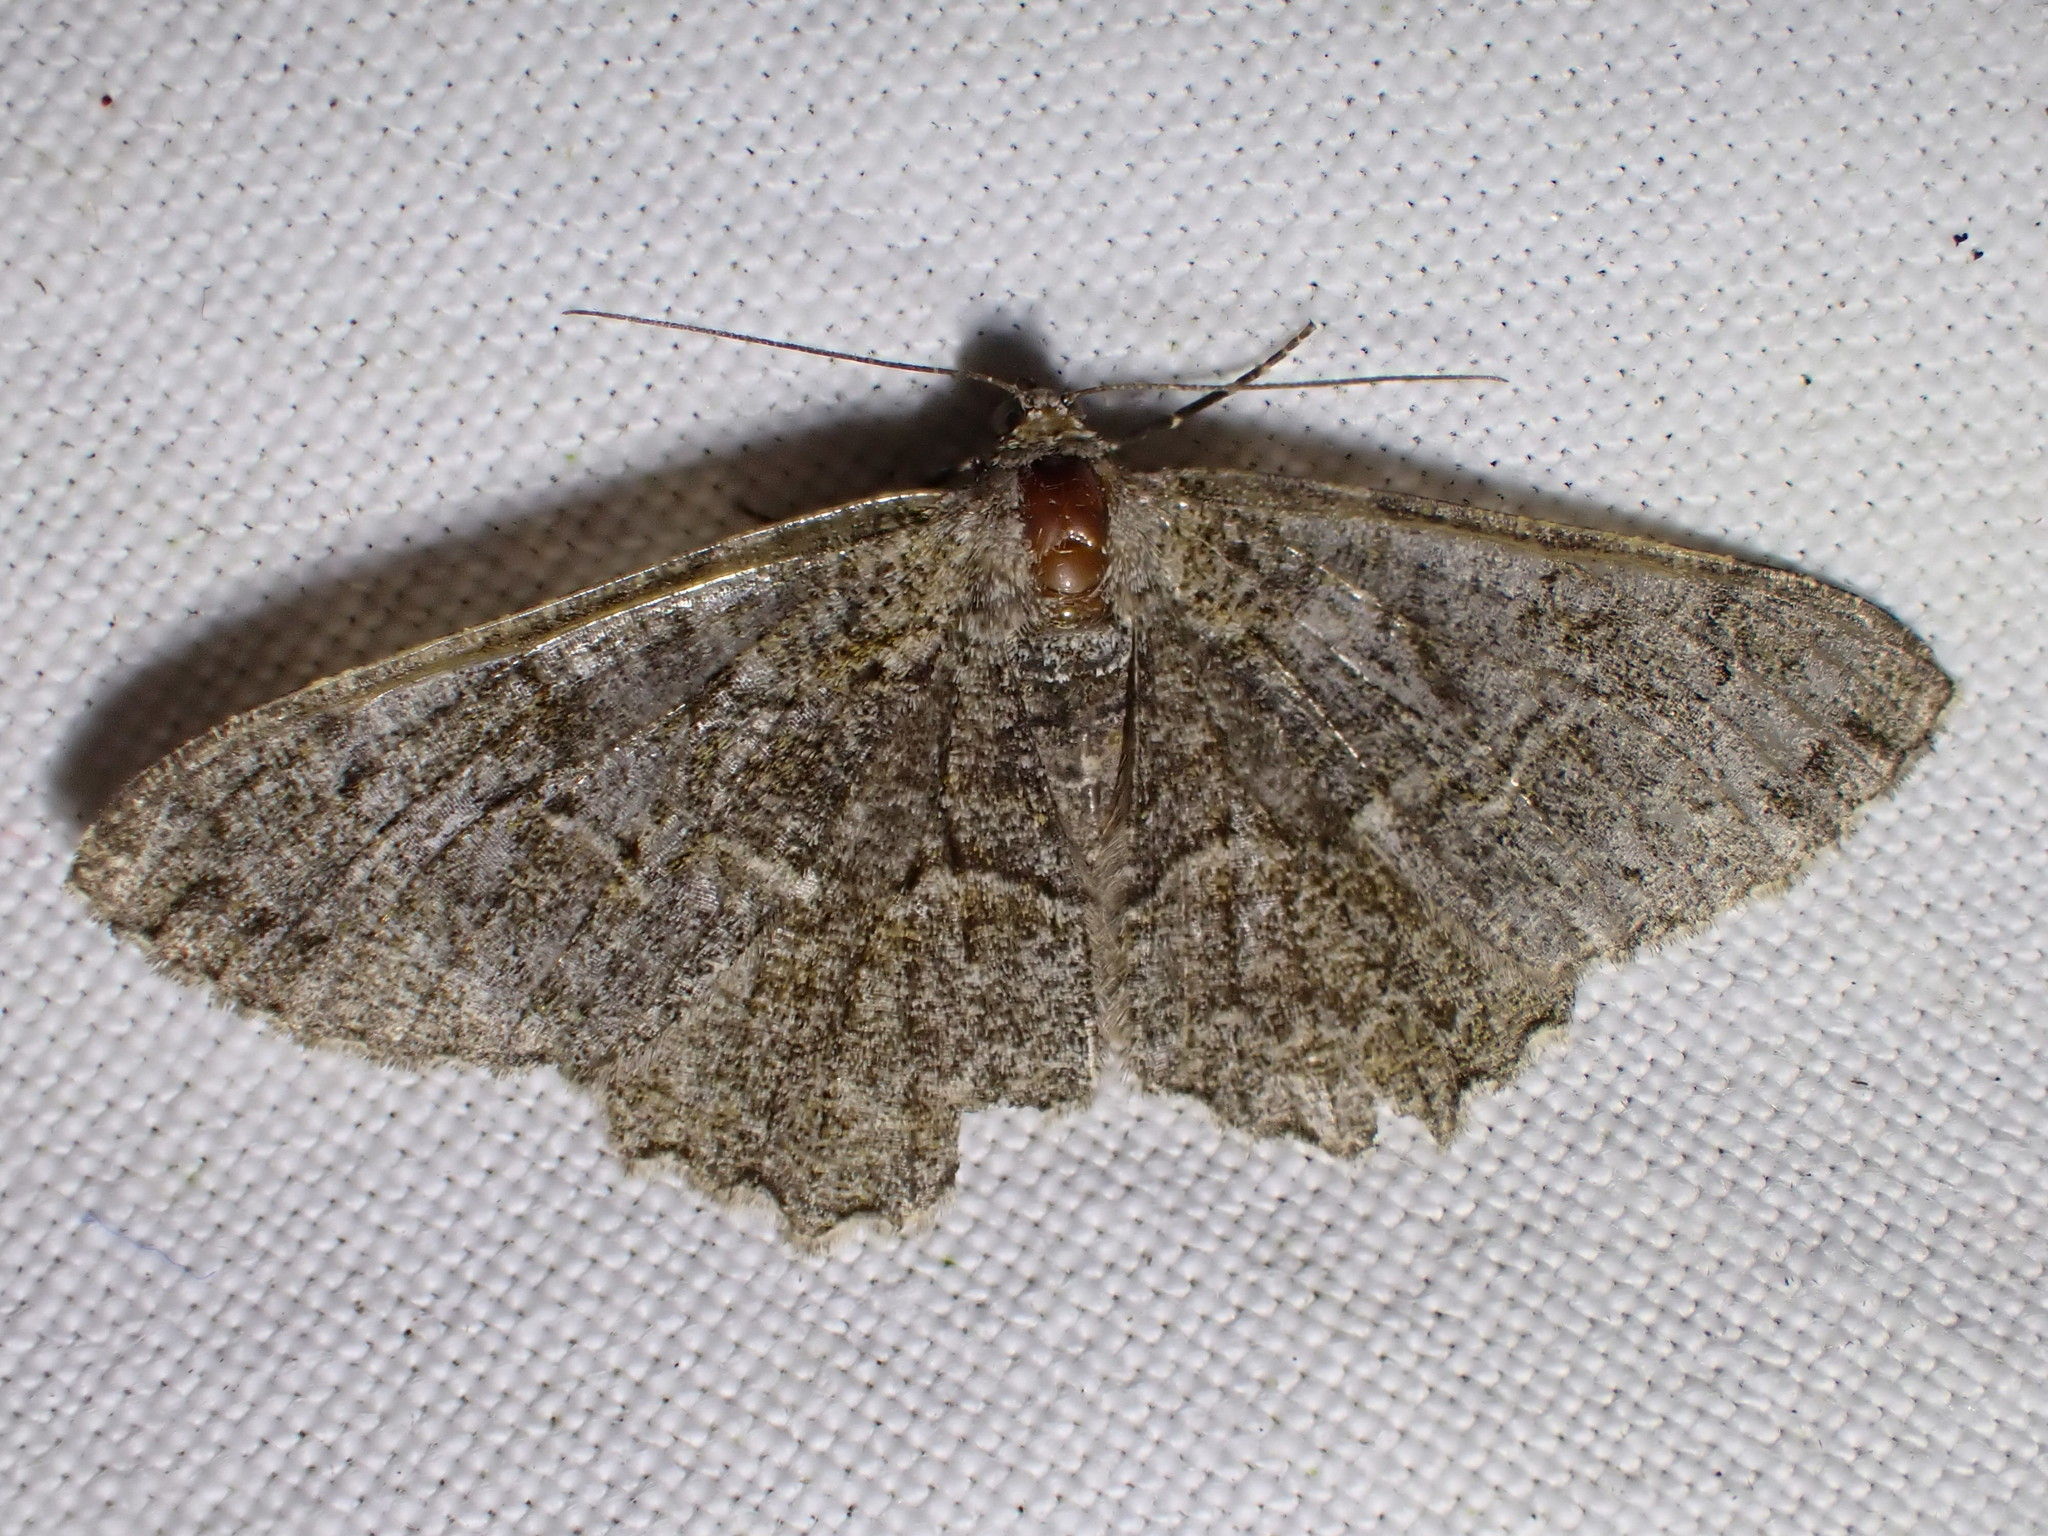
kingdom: Animalia
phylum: Arthropoda
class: Insecta
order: Lepidoptera
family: Geometridae
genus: Alcis
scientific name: Alcis repandata
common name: Mottled beauty
